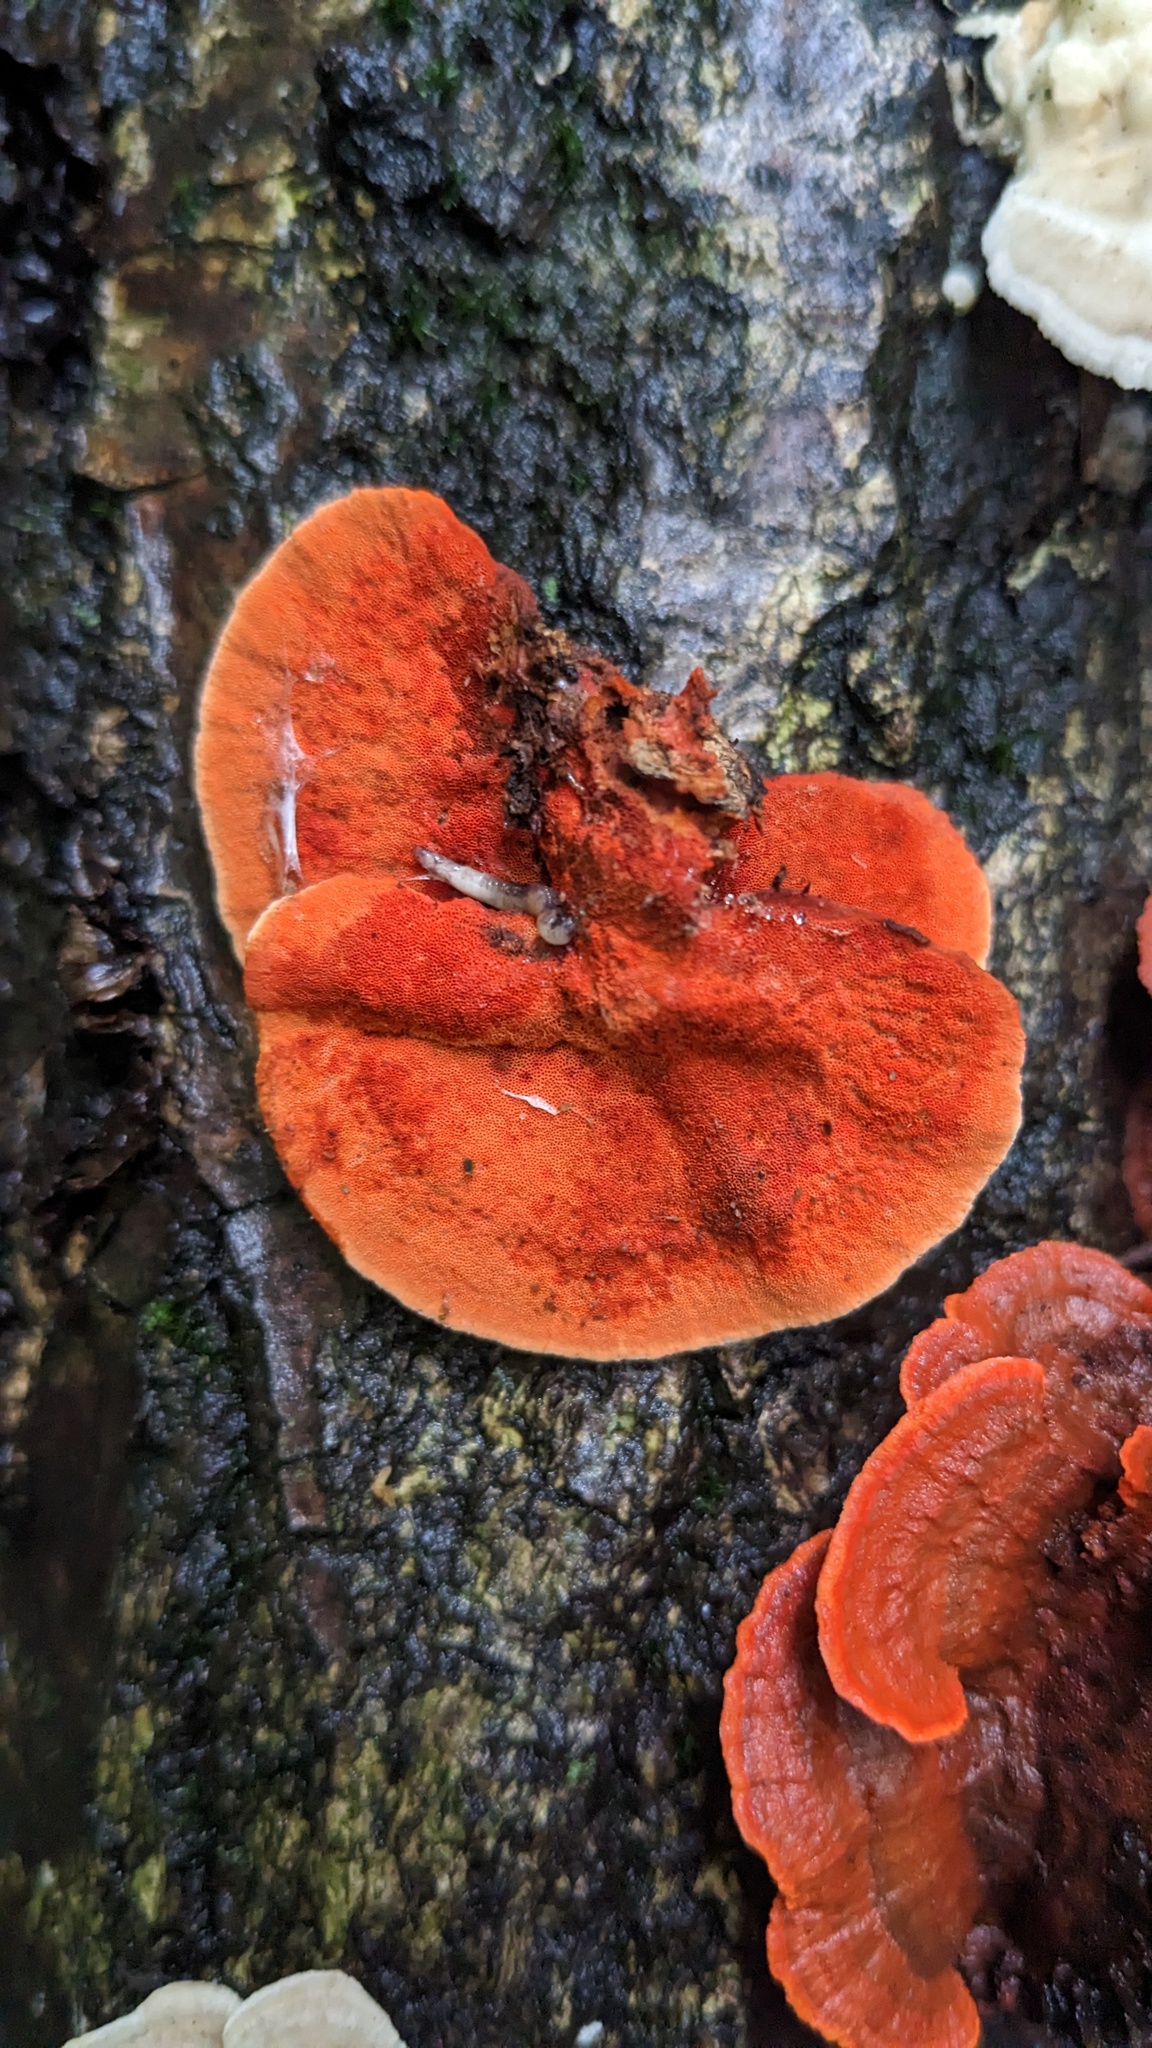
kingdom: Fungi
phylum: Basidiomycota
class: Agaricomycetes
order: Polyporales
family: Polyporaceae
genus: Trametes
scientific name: Trametes coccinea
